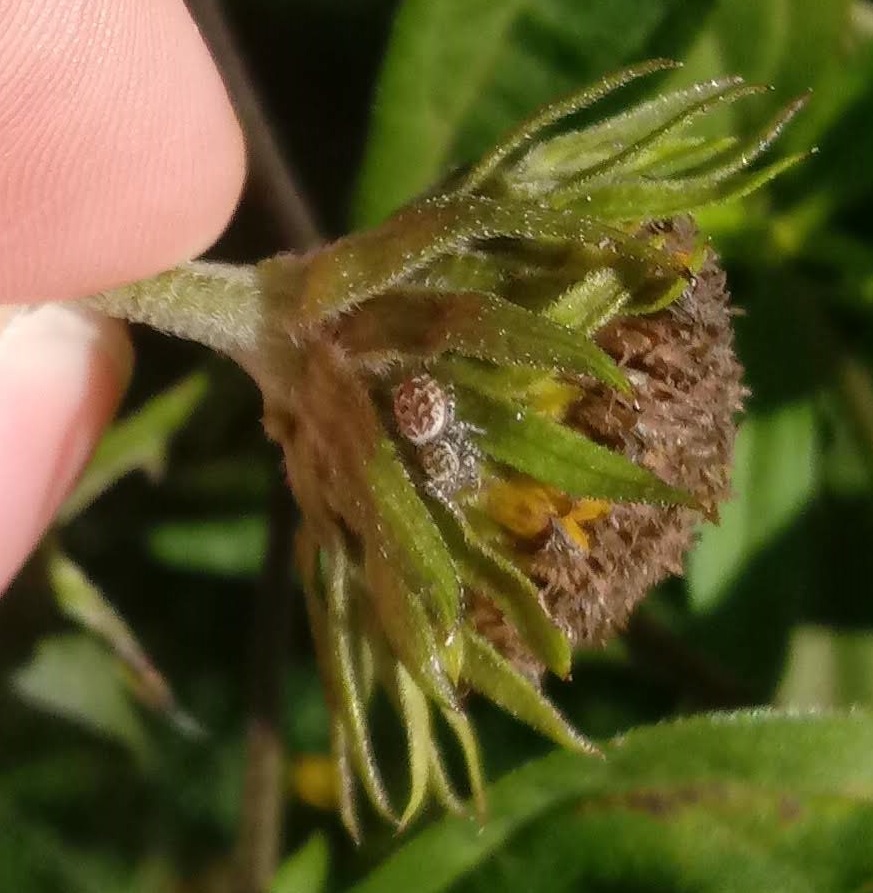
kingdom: Animalia
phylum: Arthropoda
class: Arachnida
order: Araneae
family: Salticidae
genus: Pelegrina
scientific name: Pelegrina galathea
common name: Jumping spiders
